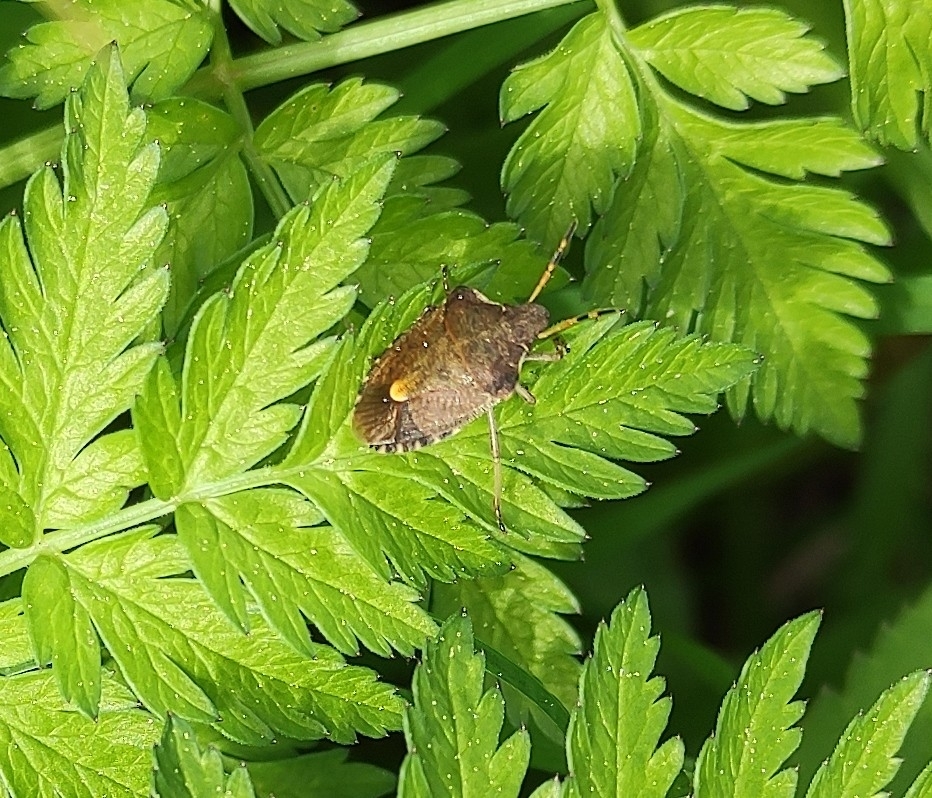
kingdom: Animalia
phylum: Arthropoda
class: Insecta
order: Hemiptera
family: Pentatomidae
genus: Holcostethus
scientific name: Holcostethus strictus
